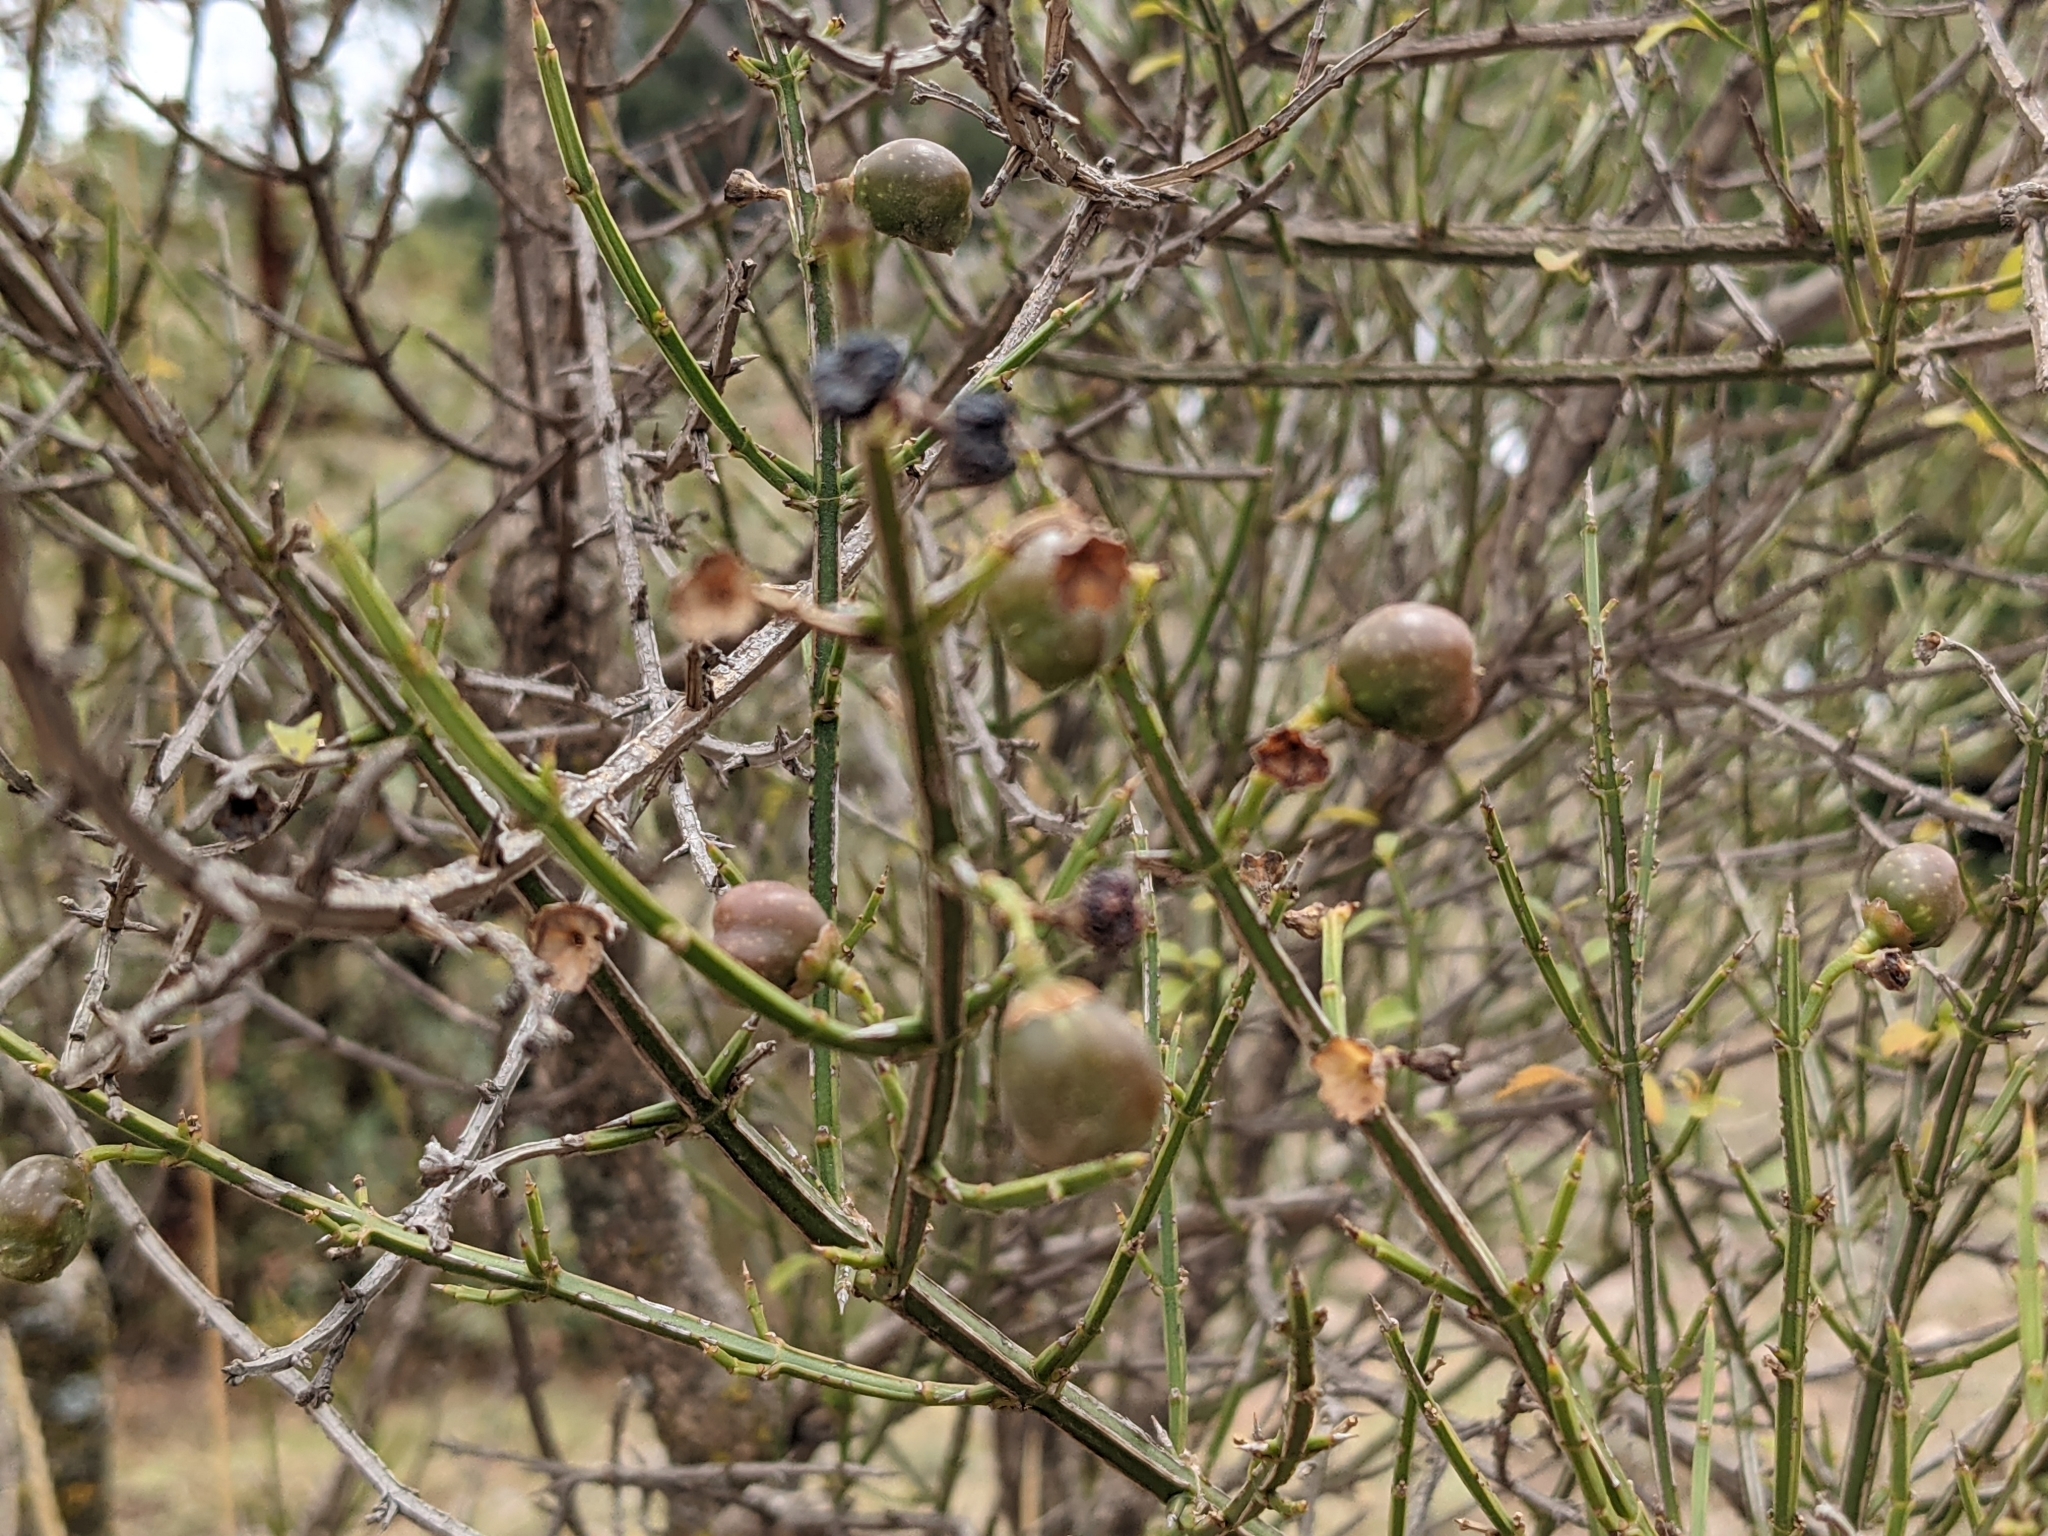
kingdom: Plantae
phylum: Tracheophyta
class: Magnoliopsida
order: Lamiales
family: Verbenaceae
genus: Citharexylum
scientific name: Citharexylum herrerae
